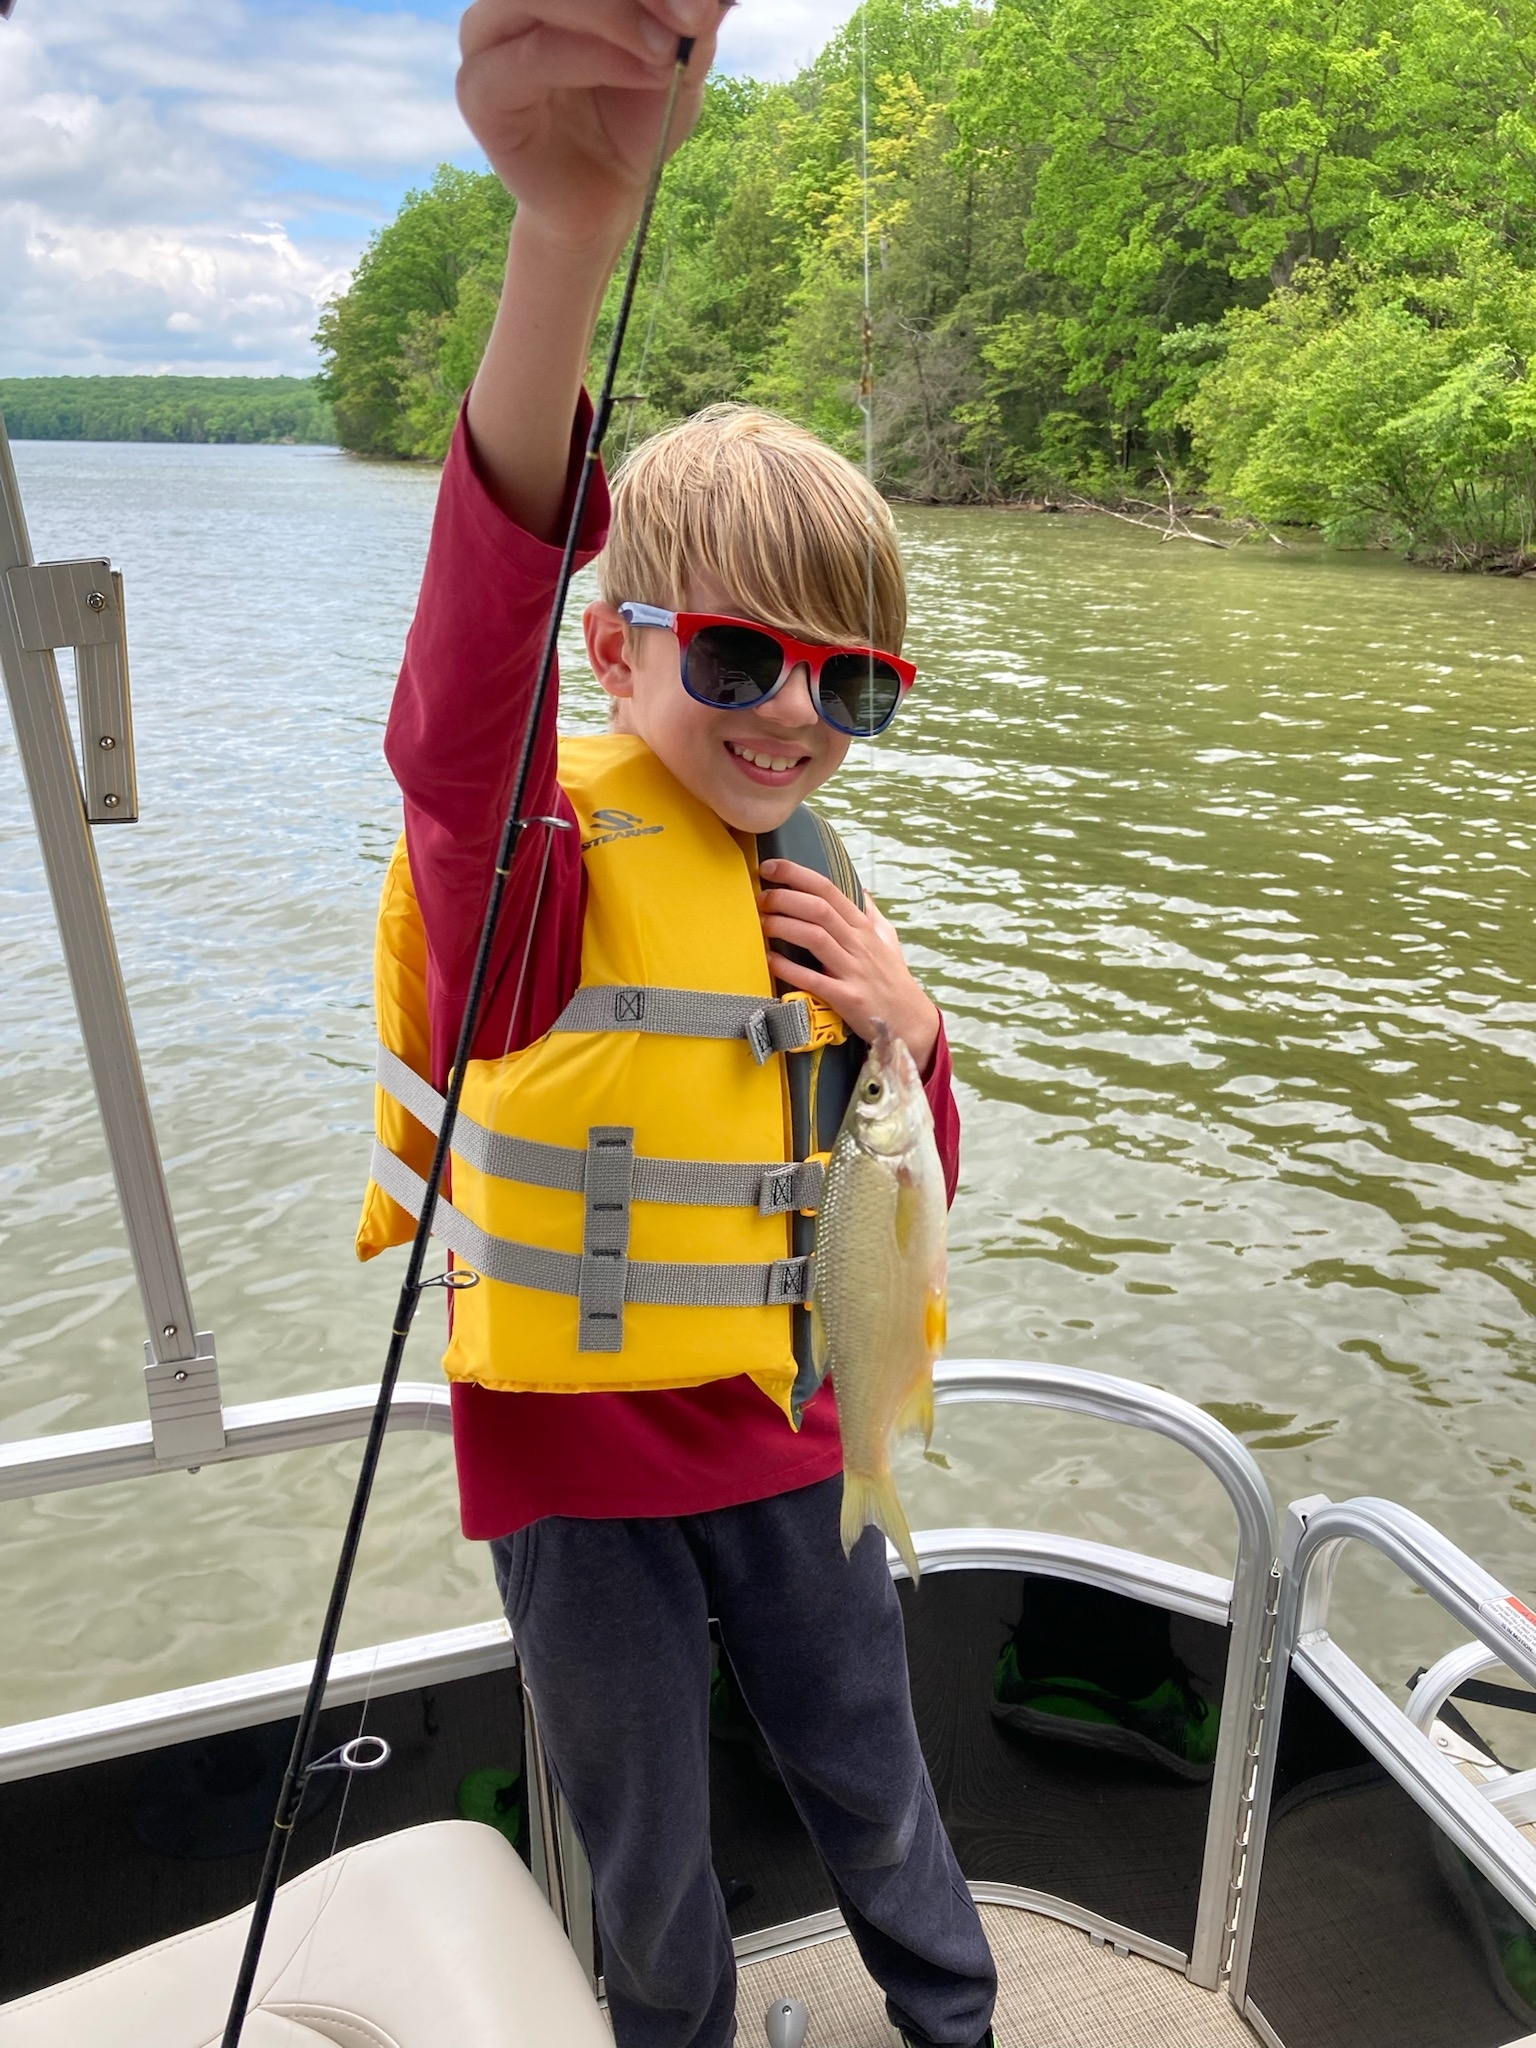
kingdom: Animalia
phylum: Chordata
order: Cypriniformes
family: Cyprinidae
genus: Notemigonus
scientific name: Notemigonus crysoleucas
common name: Golden shiner
